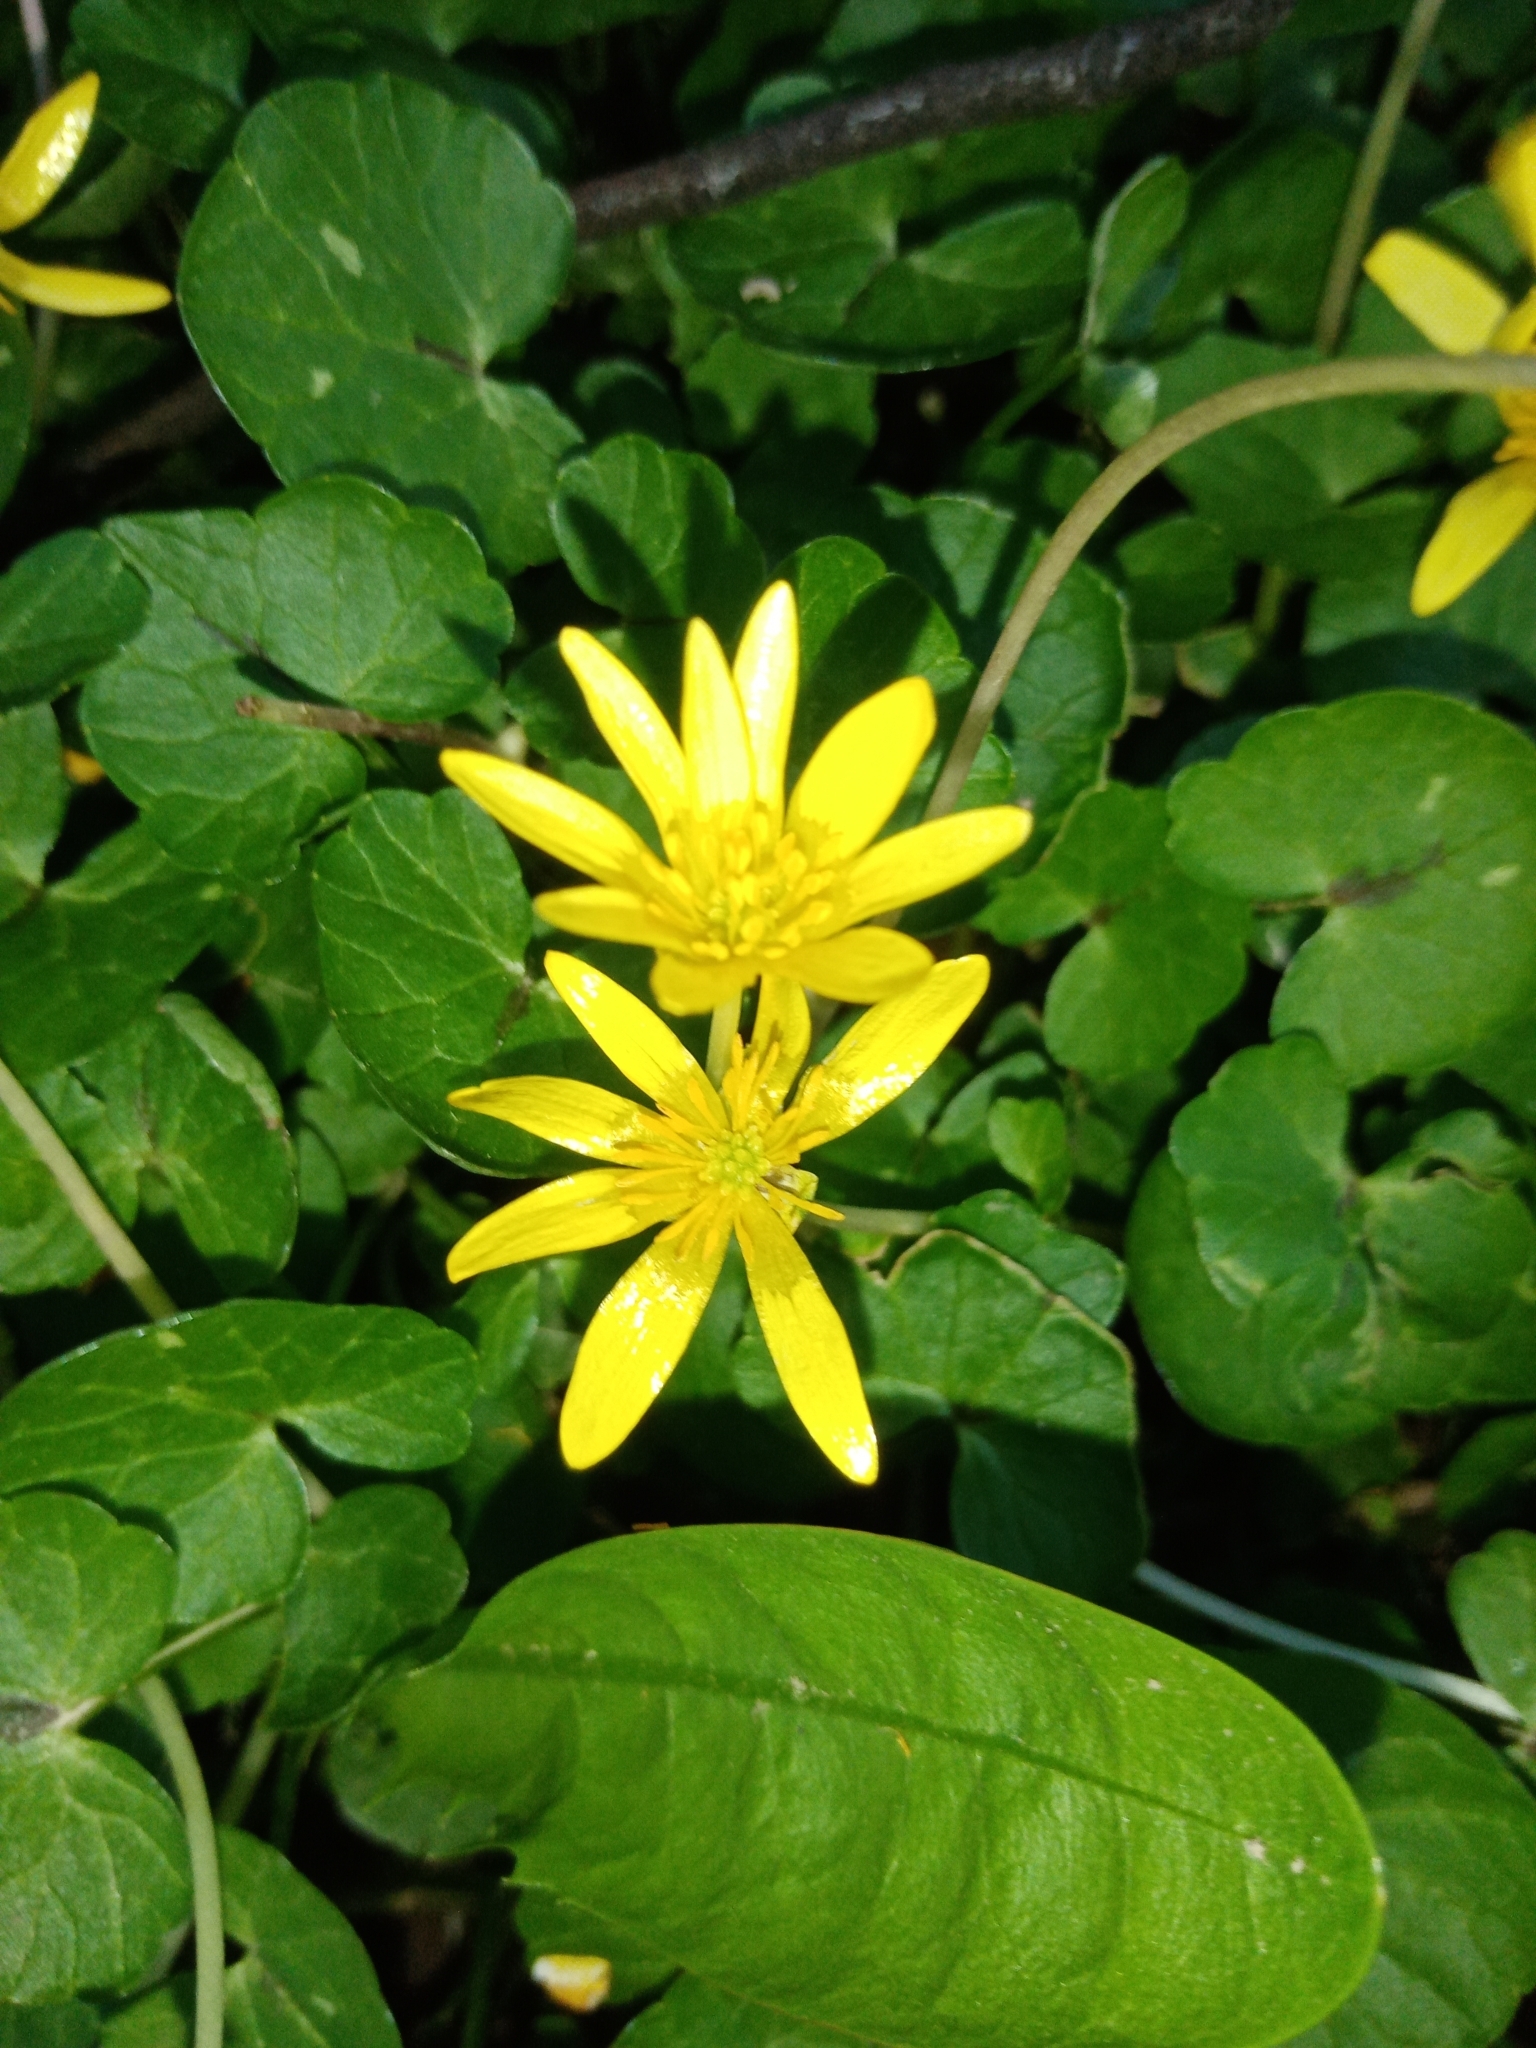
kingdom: Plantae
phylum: Tracheophyta
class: Magnoliopsida
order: Ranunculales
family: Ranunculaceae
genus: Ficaria
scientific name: Ficaria verna
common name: Lesser celandine
